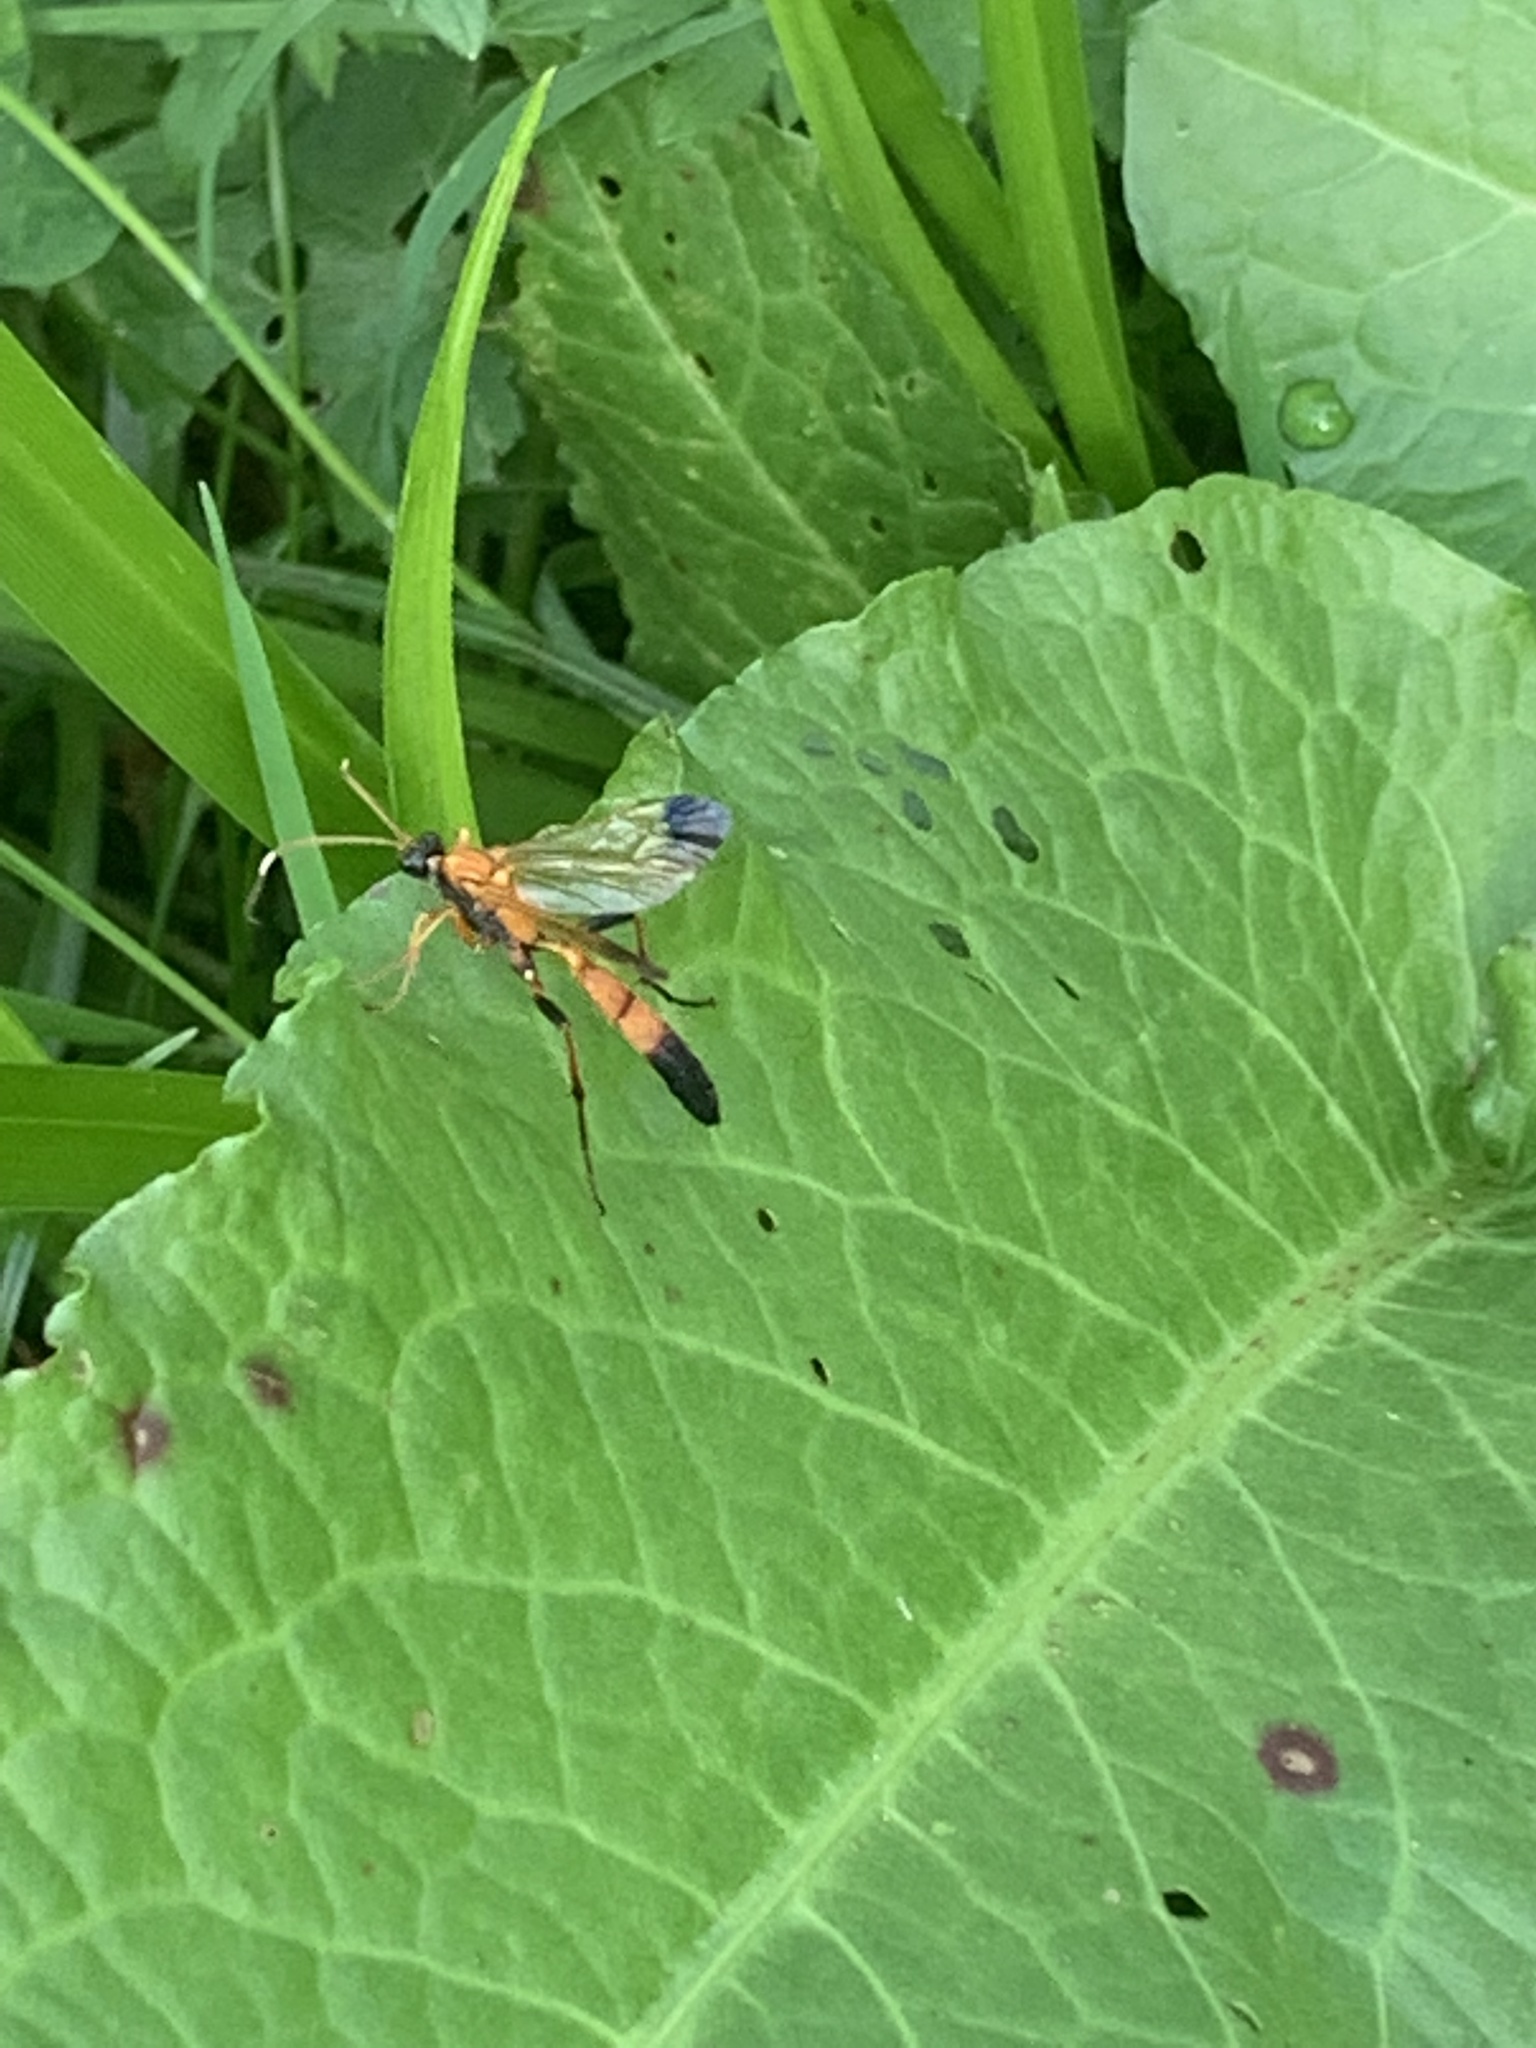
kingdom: Animalia
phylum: Arthropoda
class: Insecta
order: Hymenoptera
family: Ichneumonidae
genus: Ctenochares
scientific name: Ctenochares bicolorus
